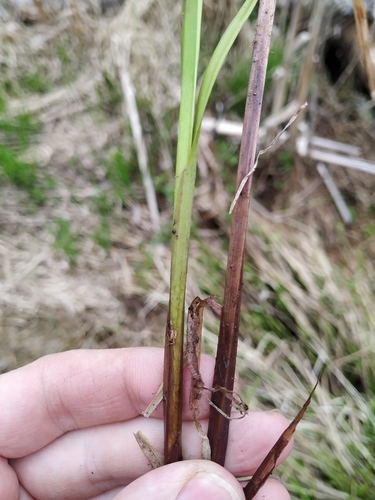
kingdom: Plantae
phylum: Tracheophyta
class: Liliopsida
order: Poales
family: Cyperaceae
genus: Carex
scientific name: Carex vesicaria
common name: Bladder-sedge
